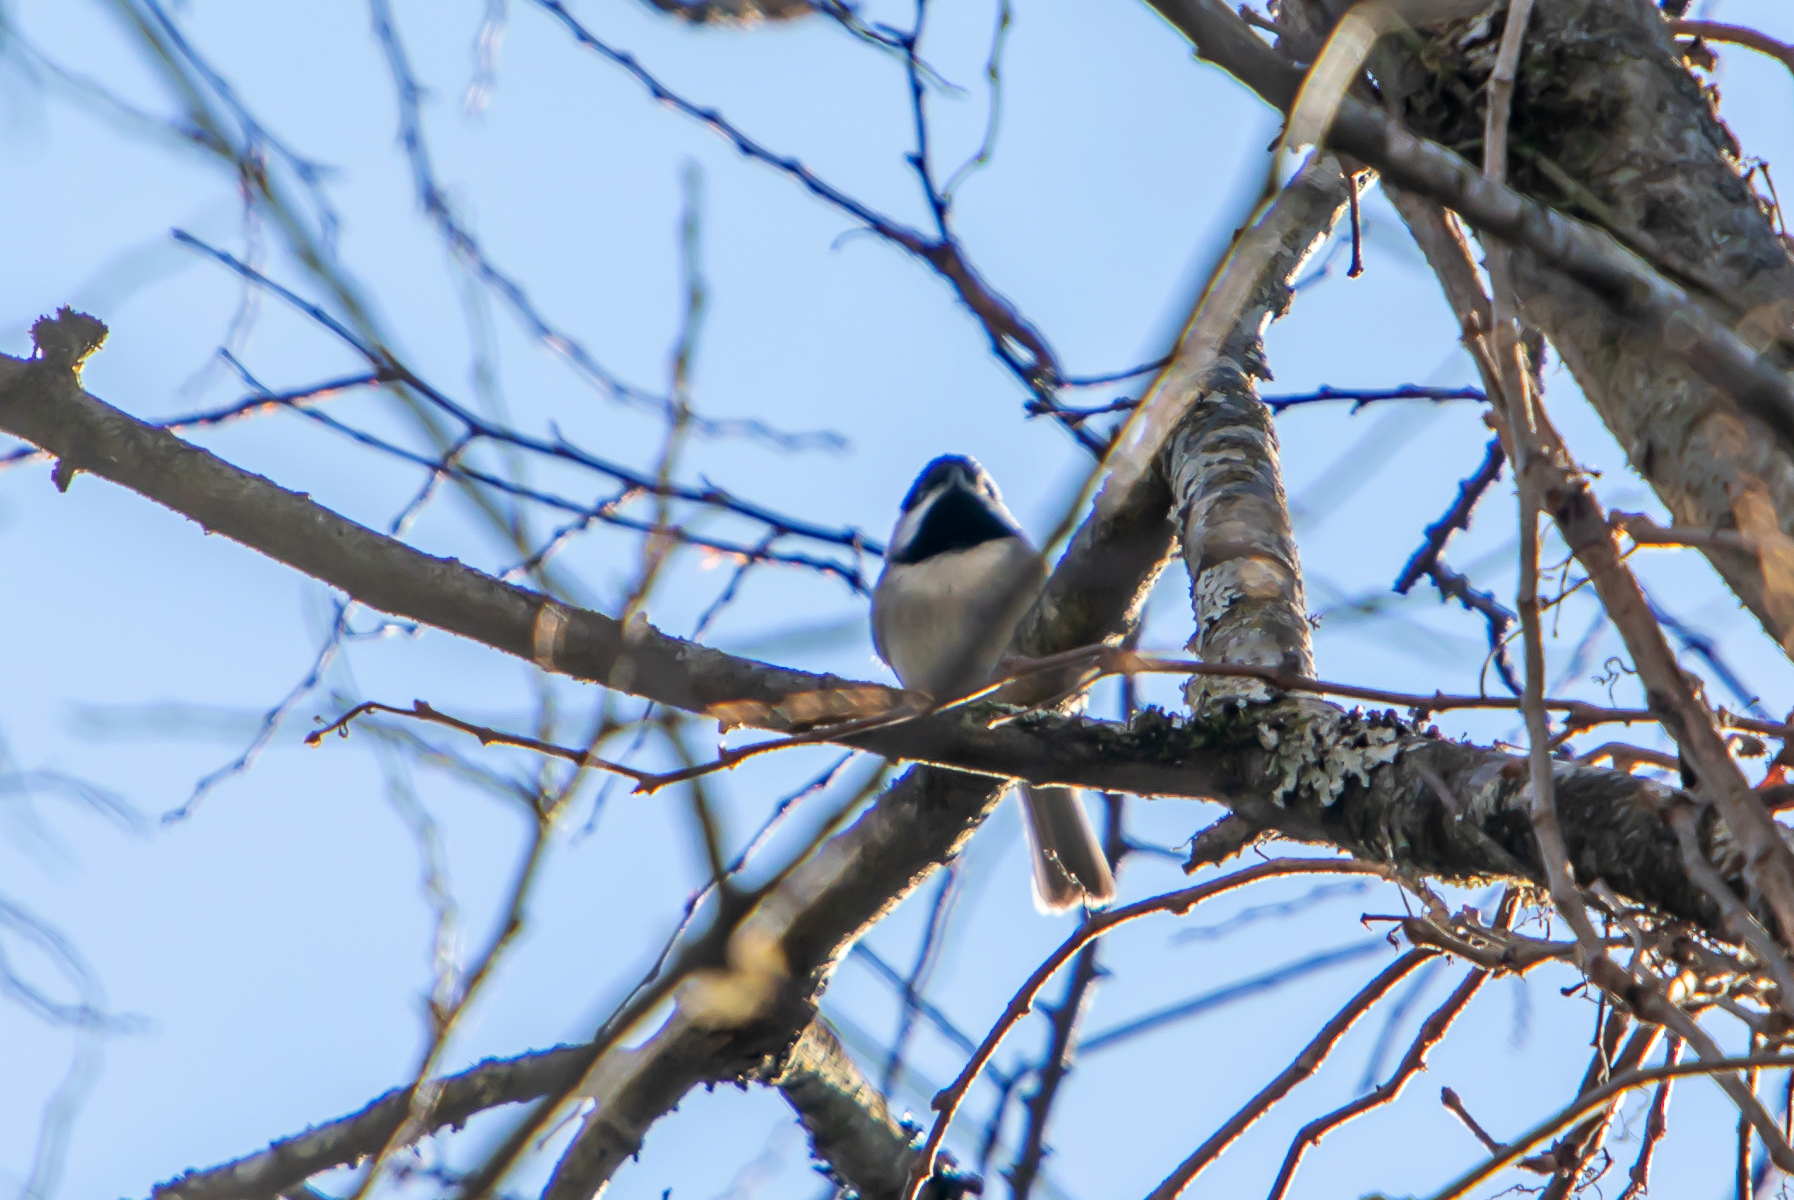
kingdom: Animalia
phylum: Chordata
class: Aves
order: Passeriformes
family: Paridae
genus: Poecile
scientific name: Poecile carolinensis
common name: Carolina chickadee
